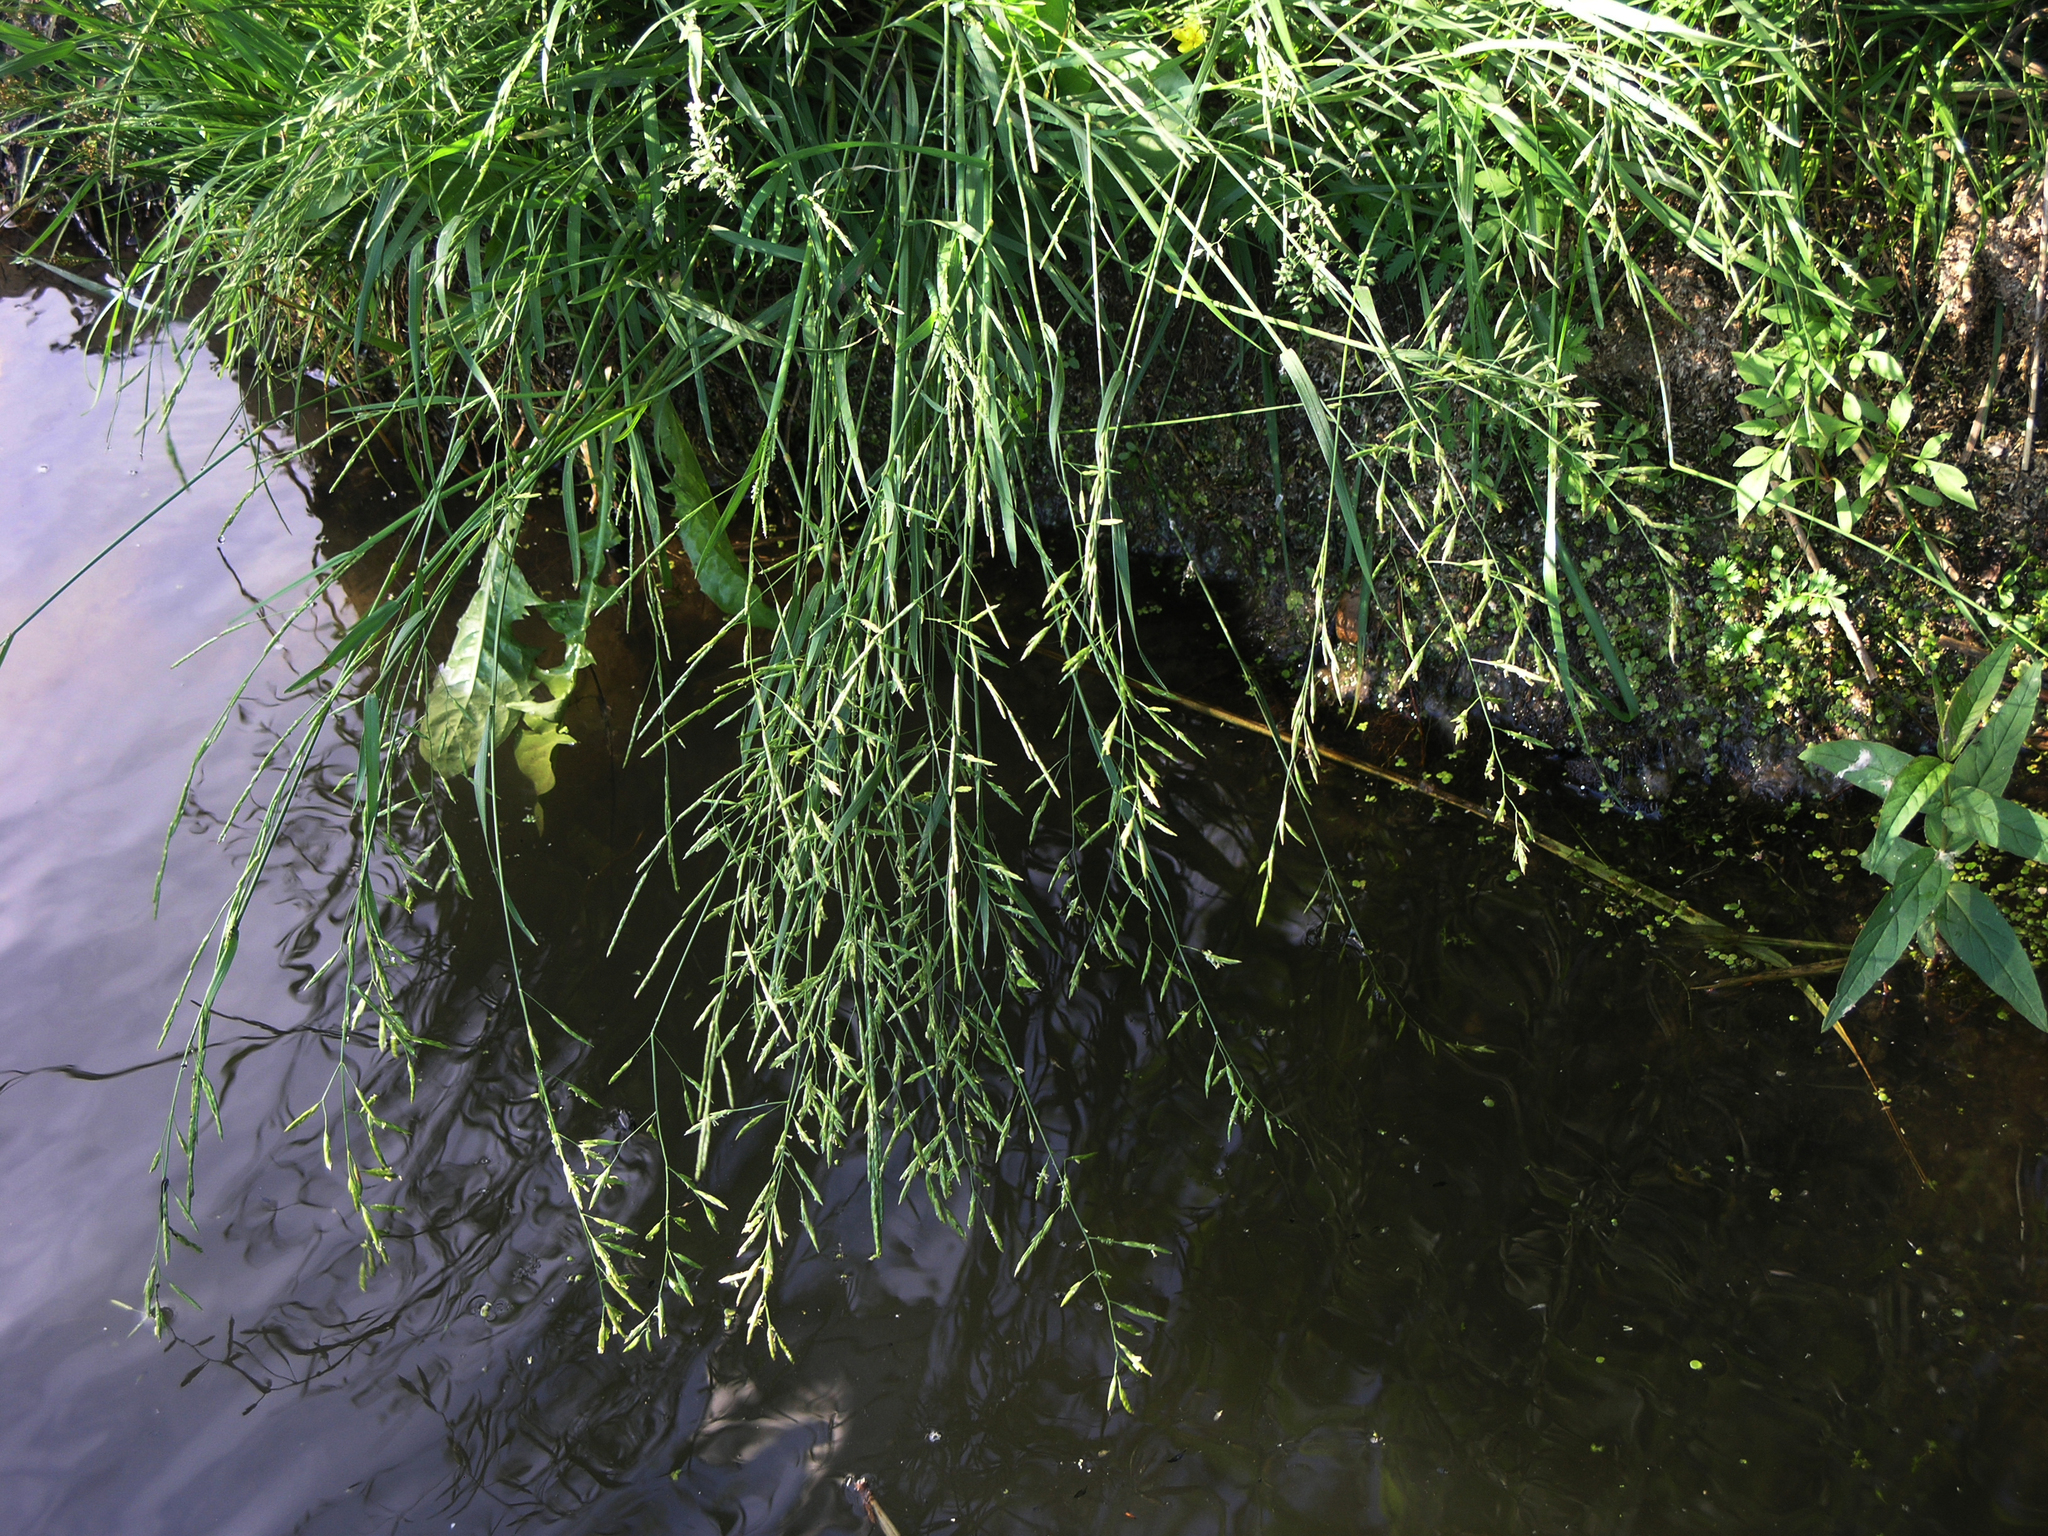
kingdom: Plantae
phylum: Tracheophyta
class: Liliopsida
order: Poales
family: Poaceae
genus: Lolium
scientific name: Lolium pratense
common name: Dover grass
